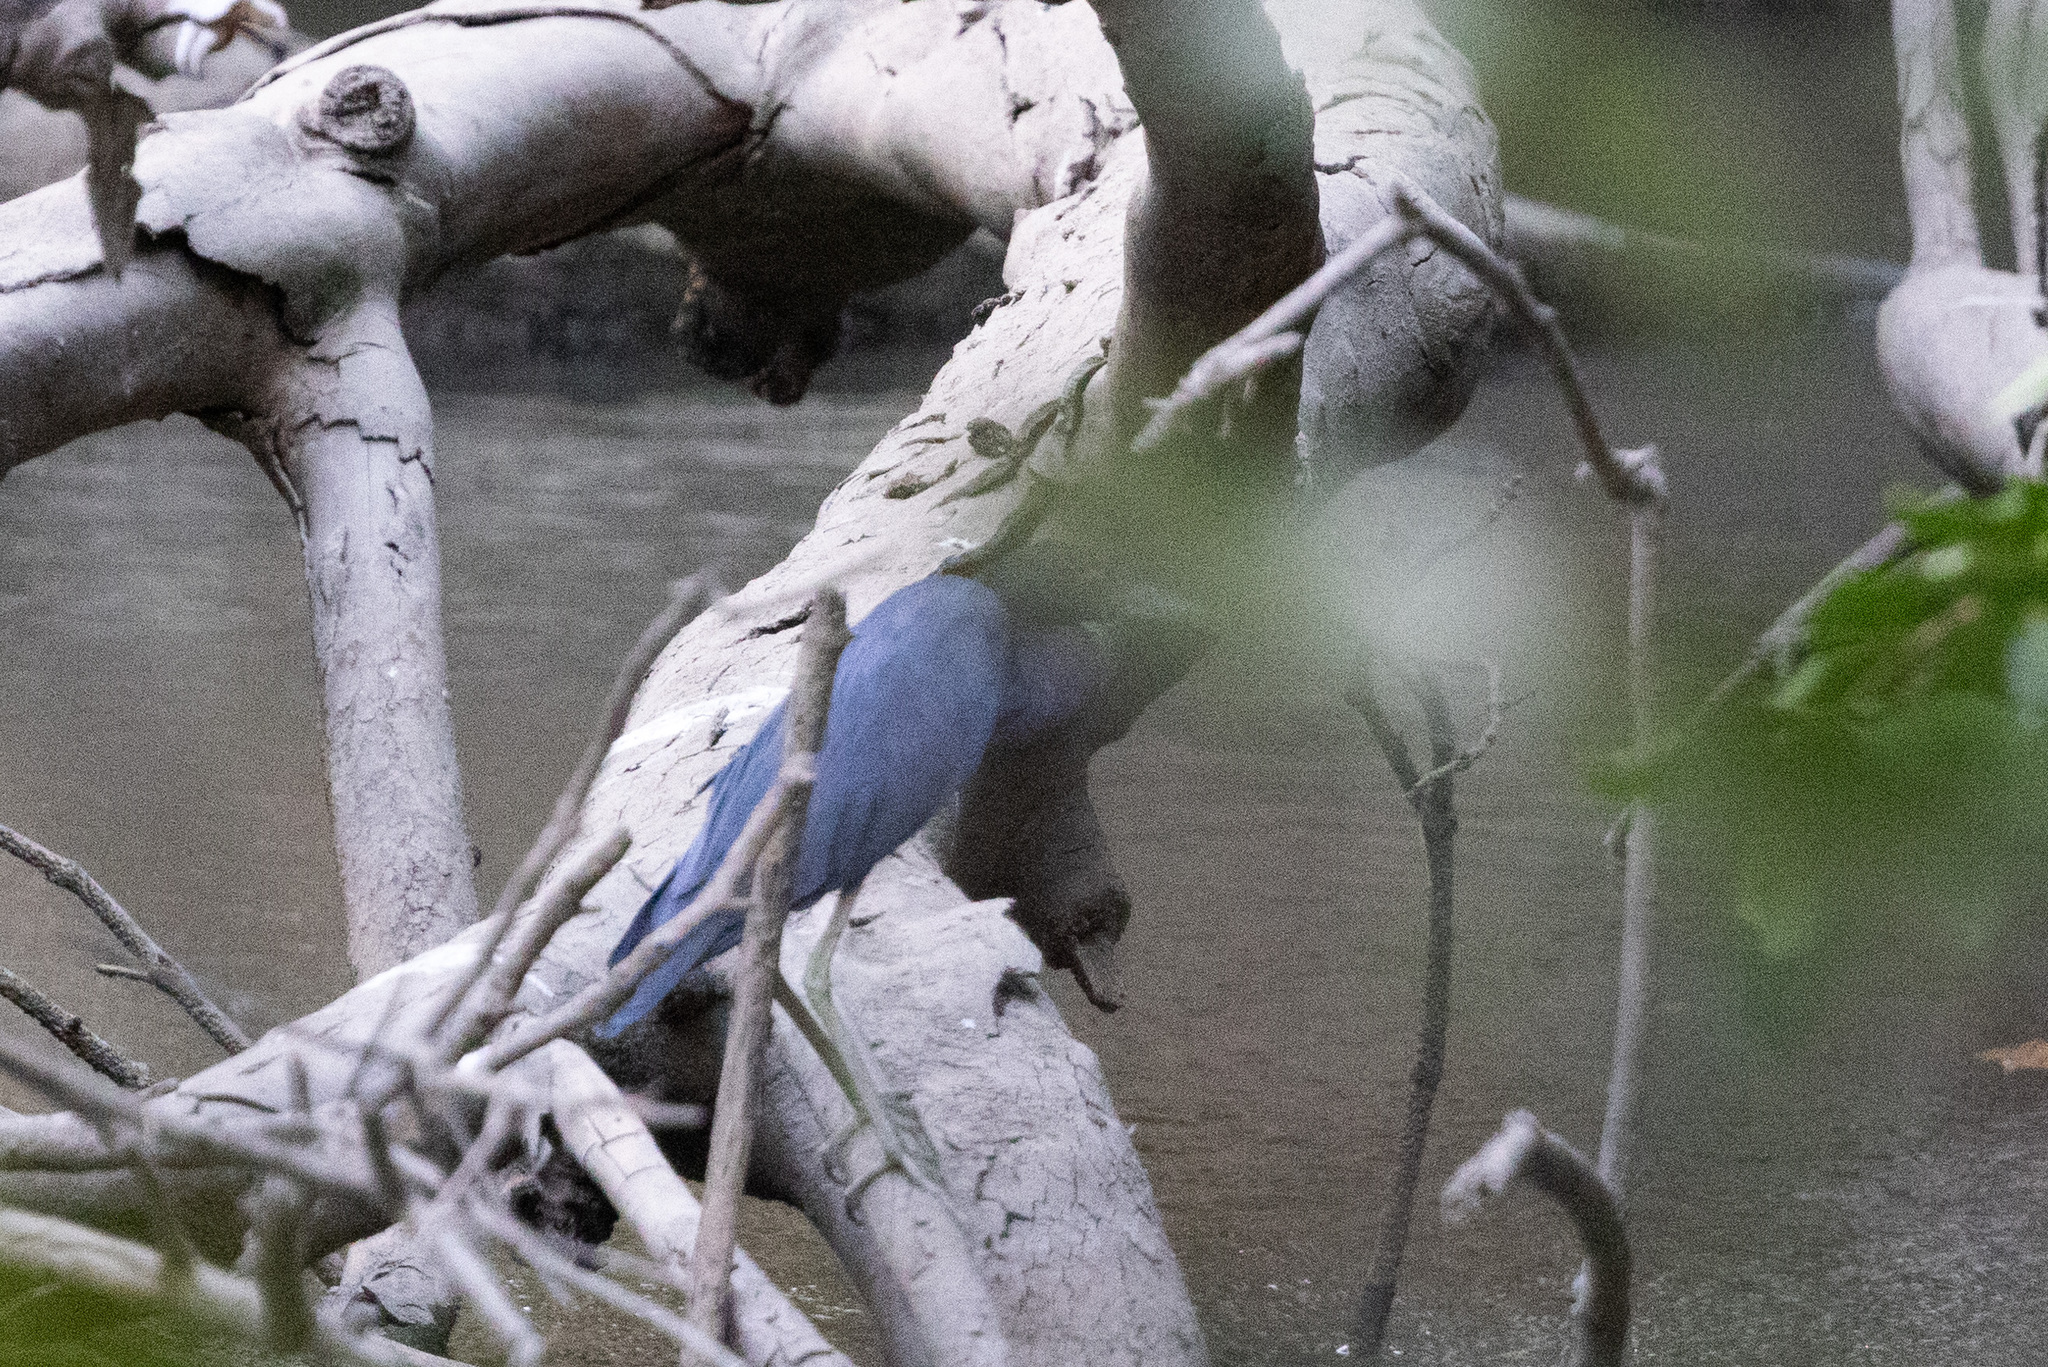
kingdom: Animalia
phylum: Chordata
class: Aves
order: Pelecaniformes
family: Ardeidae
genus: Egretta
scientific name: Egretta caerulea
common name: Little blue heron
